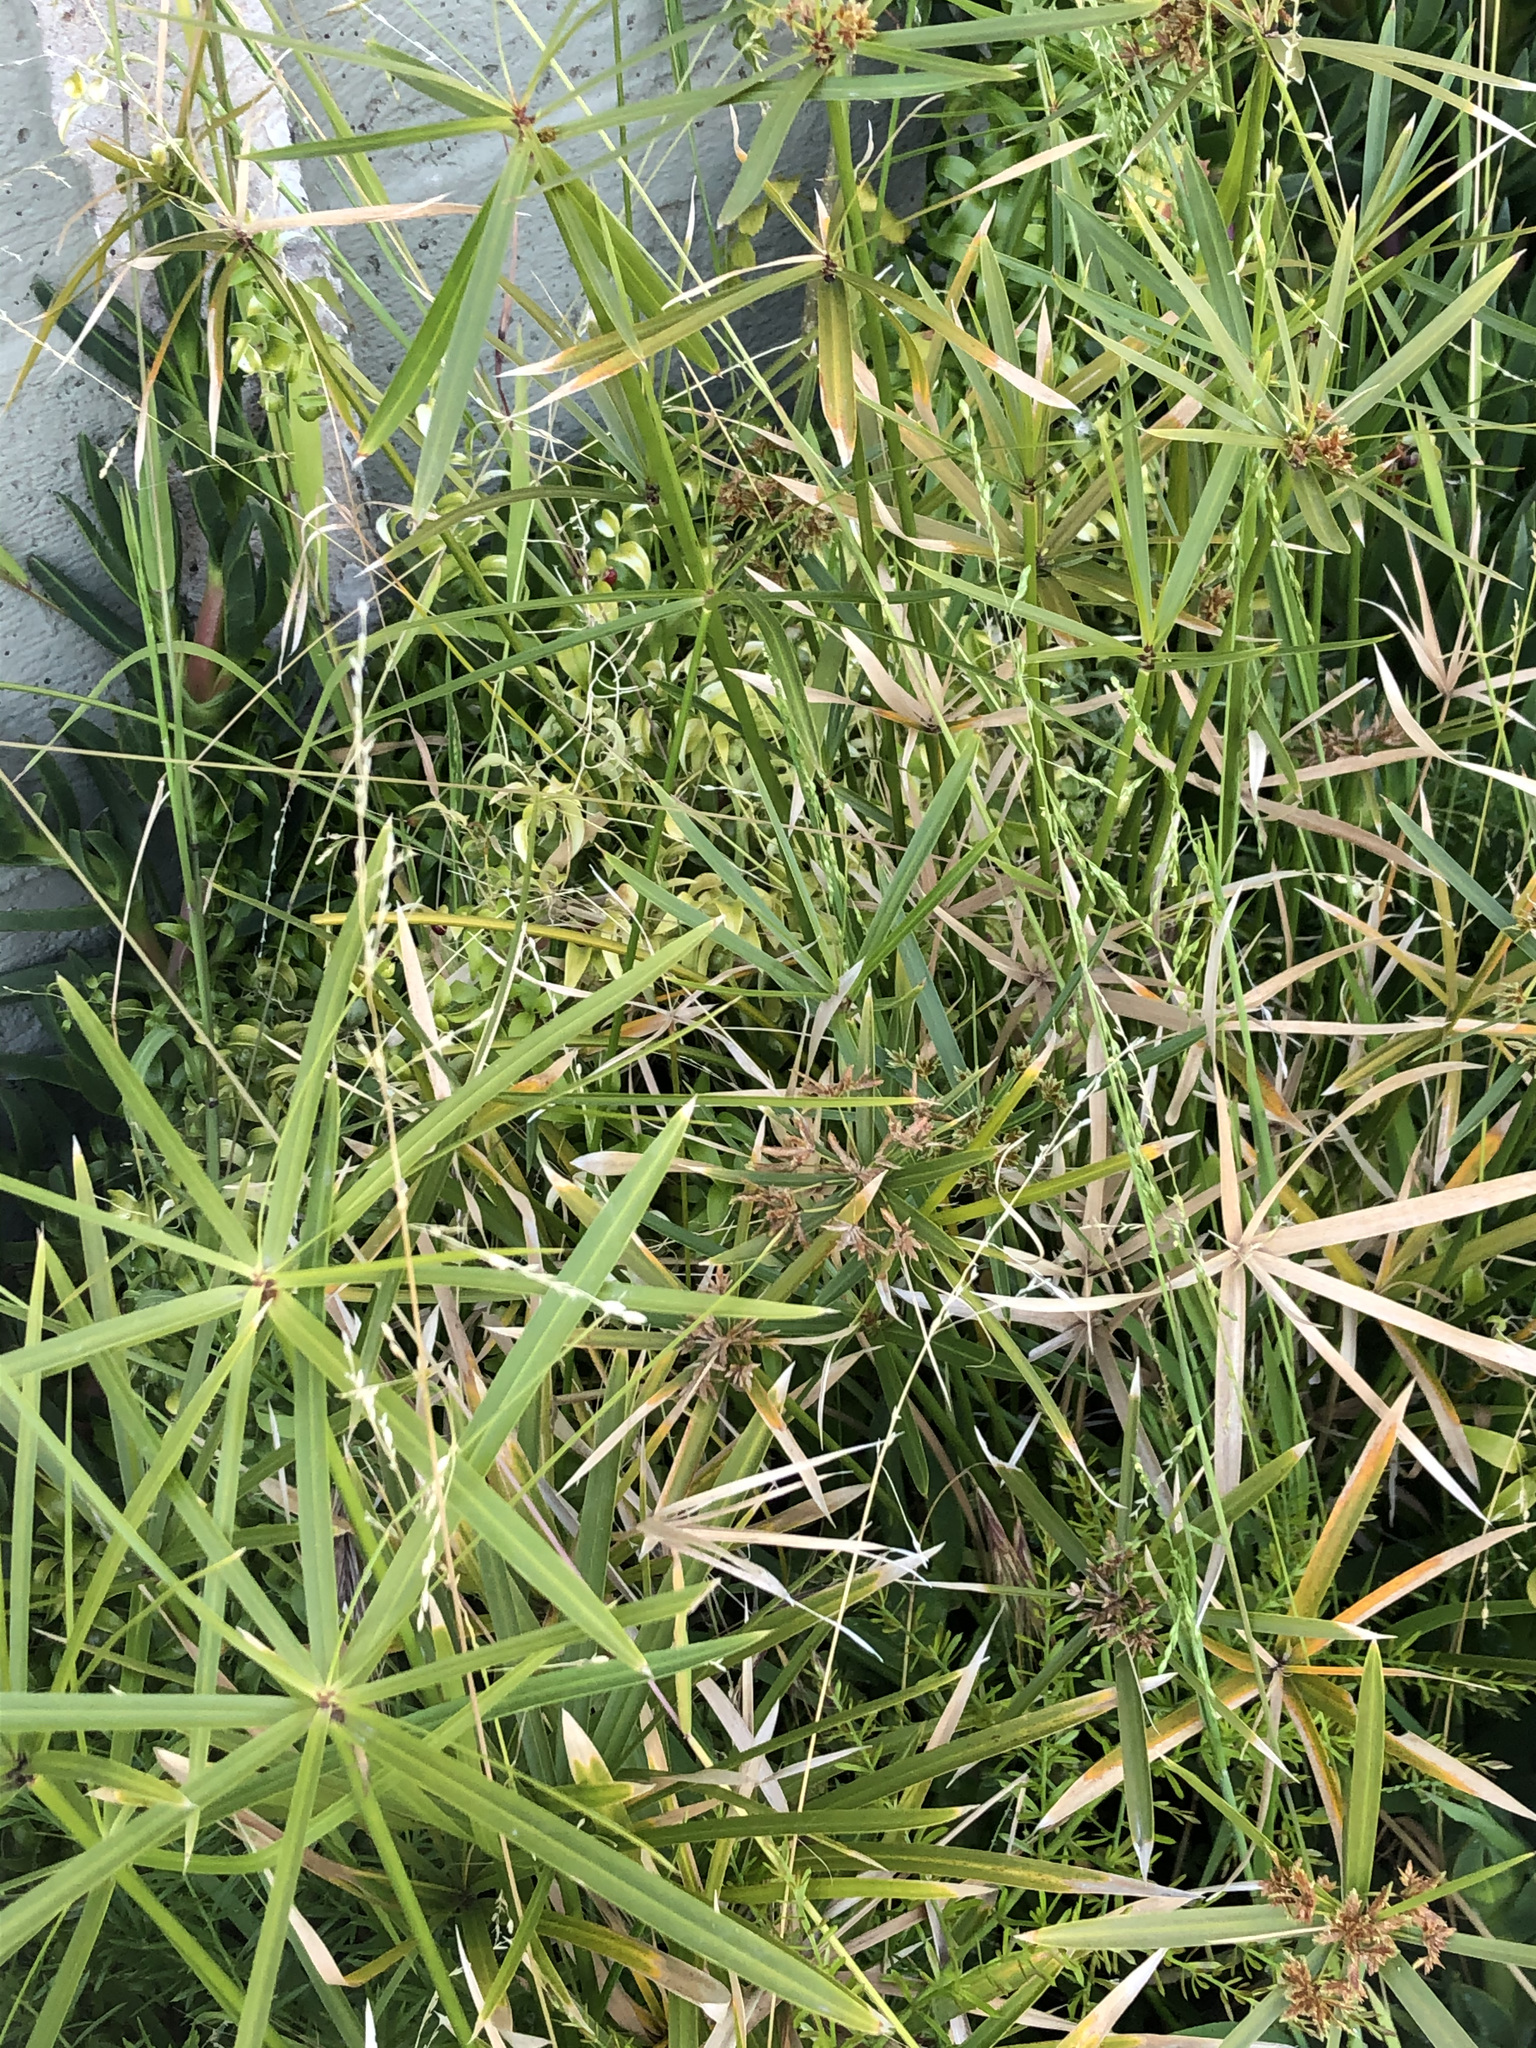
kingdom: Plantae
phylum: Tracheophyta
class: Liliopsida
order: Poales
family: Cyperaceae
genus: Cyperus
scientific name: Cyperus alternifolius
